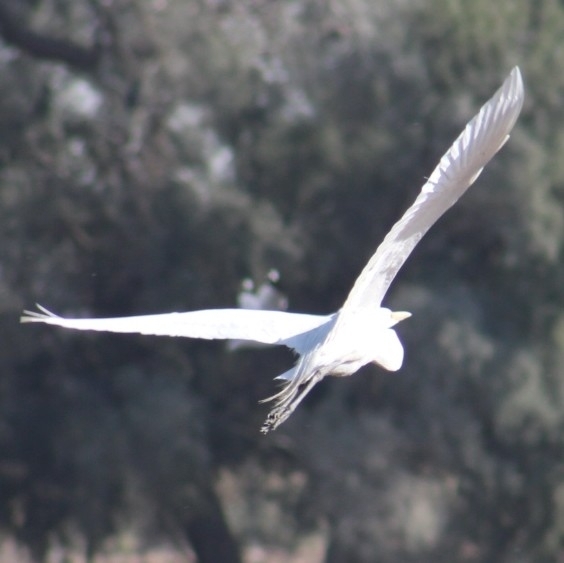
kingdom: Animalia
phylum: Chordata
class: Aves
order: Pelecaniformes
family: Ardeidae
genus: Ardea
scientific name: Ardea alba
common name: Great egret
